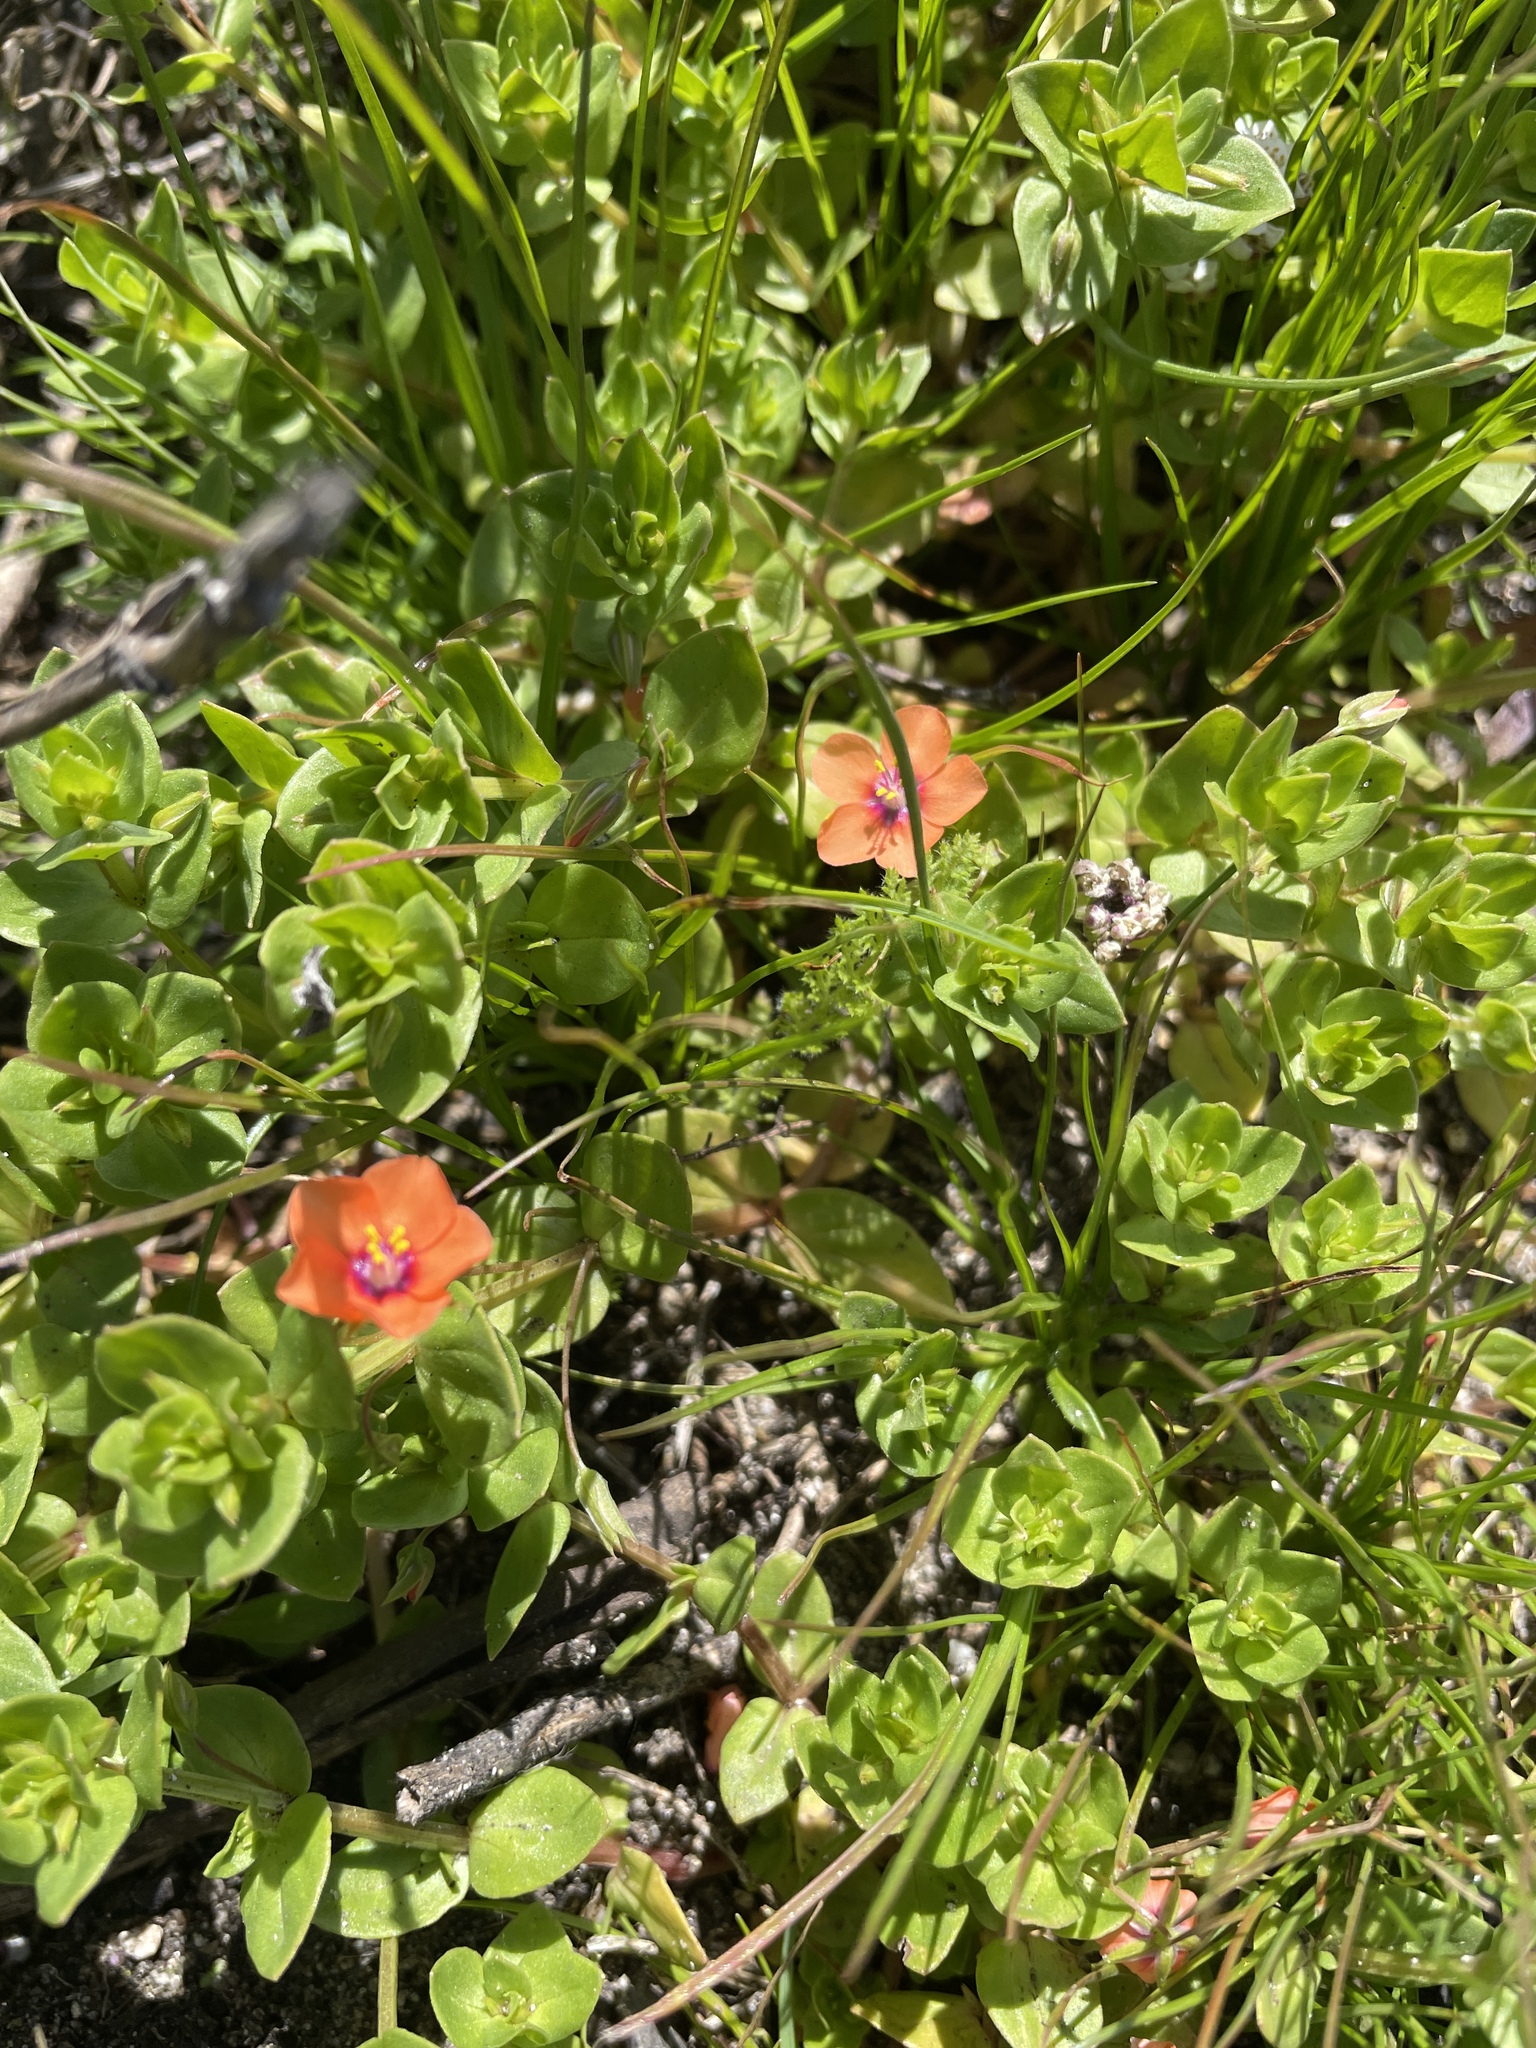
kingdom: Plantae
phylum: Tracheophyta
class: Magnoliopsida
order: Ericales
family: Primulaceae
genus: Lysimachia
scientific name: Lysimachia arvensis
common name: Scarlet pimpernel
